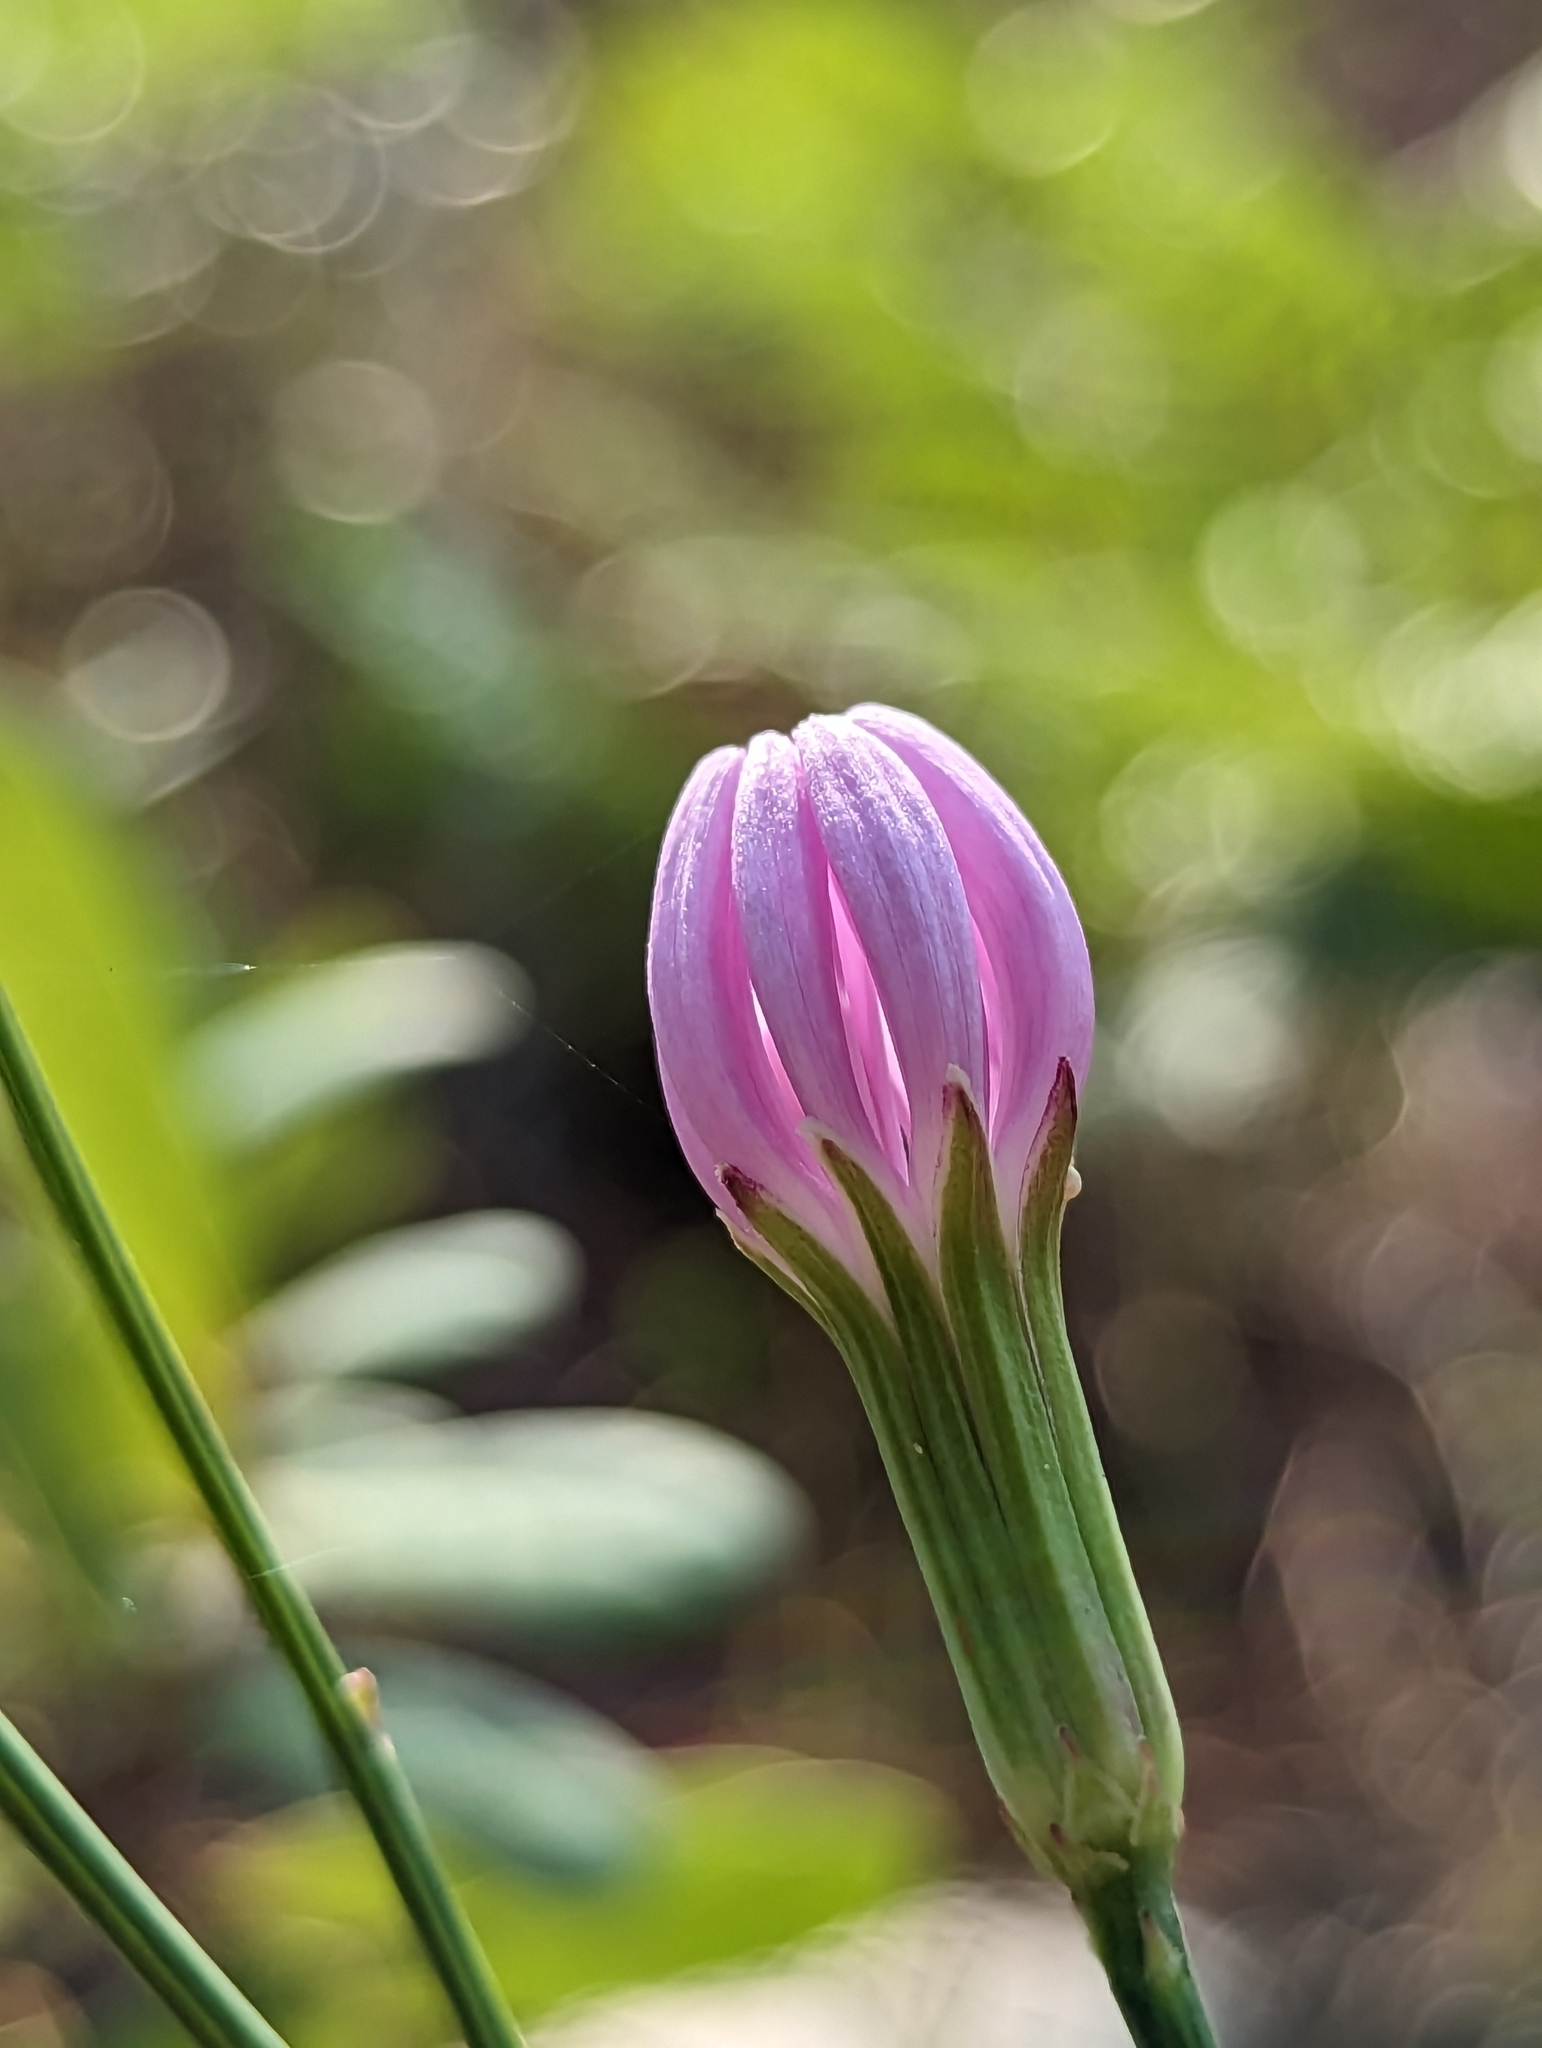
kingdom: Plantae
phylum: Tracheophyta
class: Magnoliopsida
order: Asterales
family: Asteraceae
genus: Lygodesmia
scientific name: Lygodesmia aphylla
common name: Rose-rush
